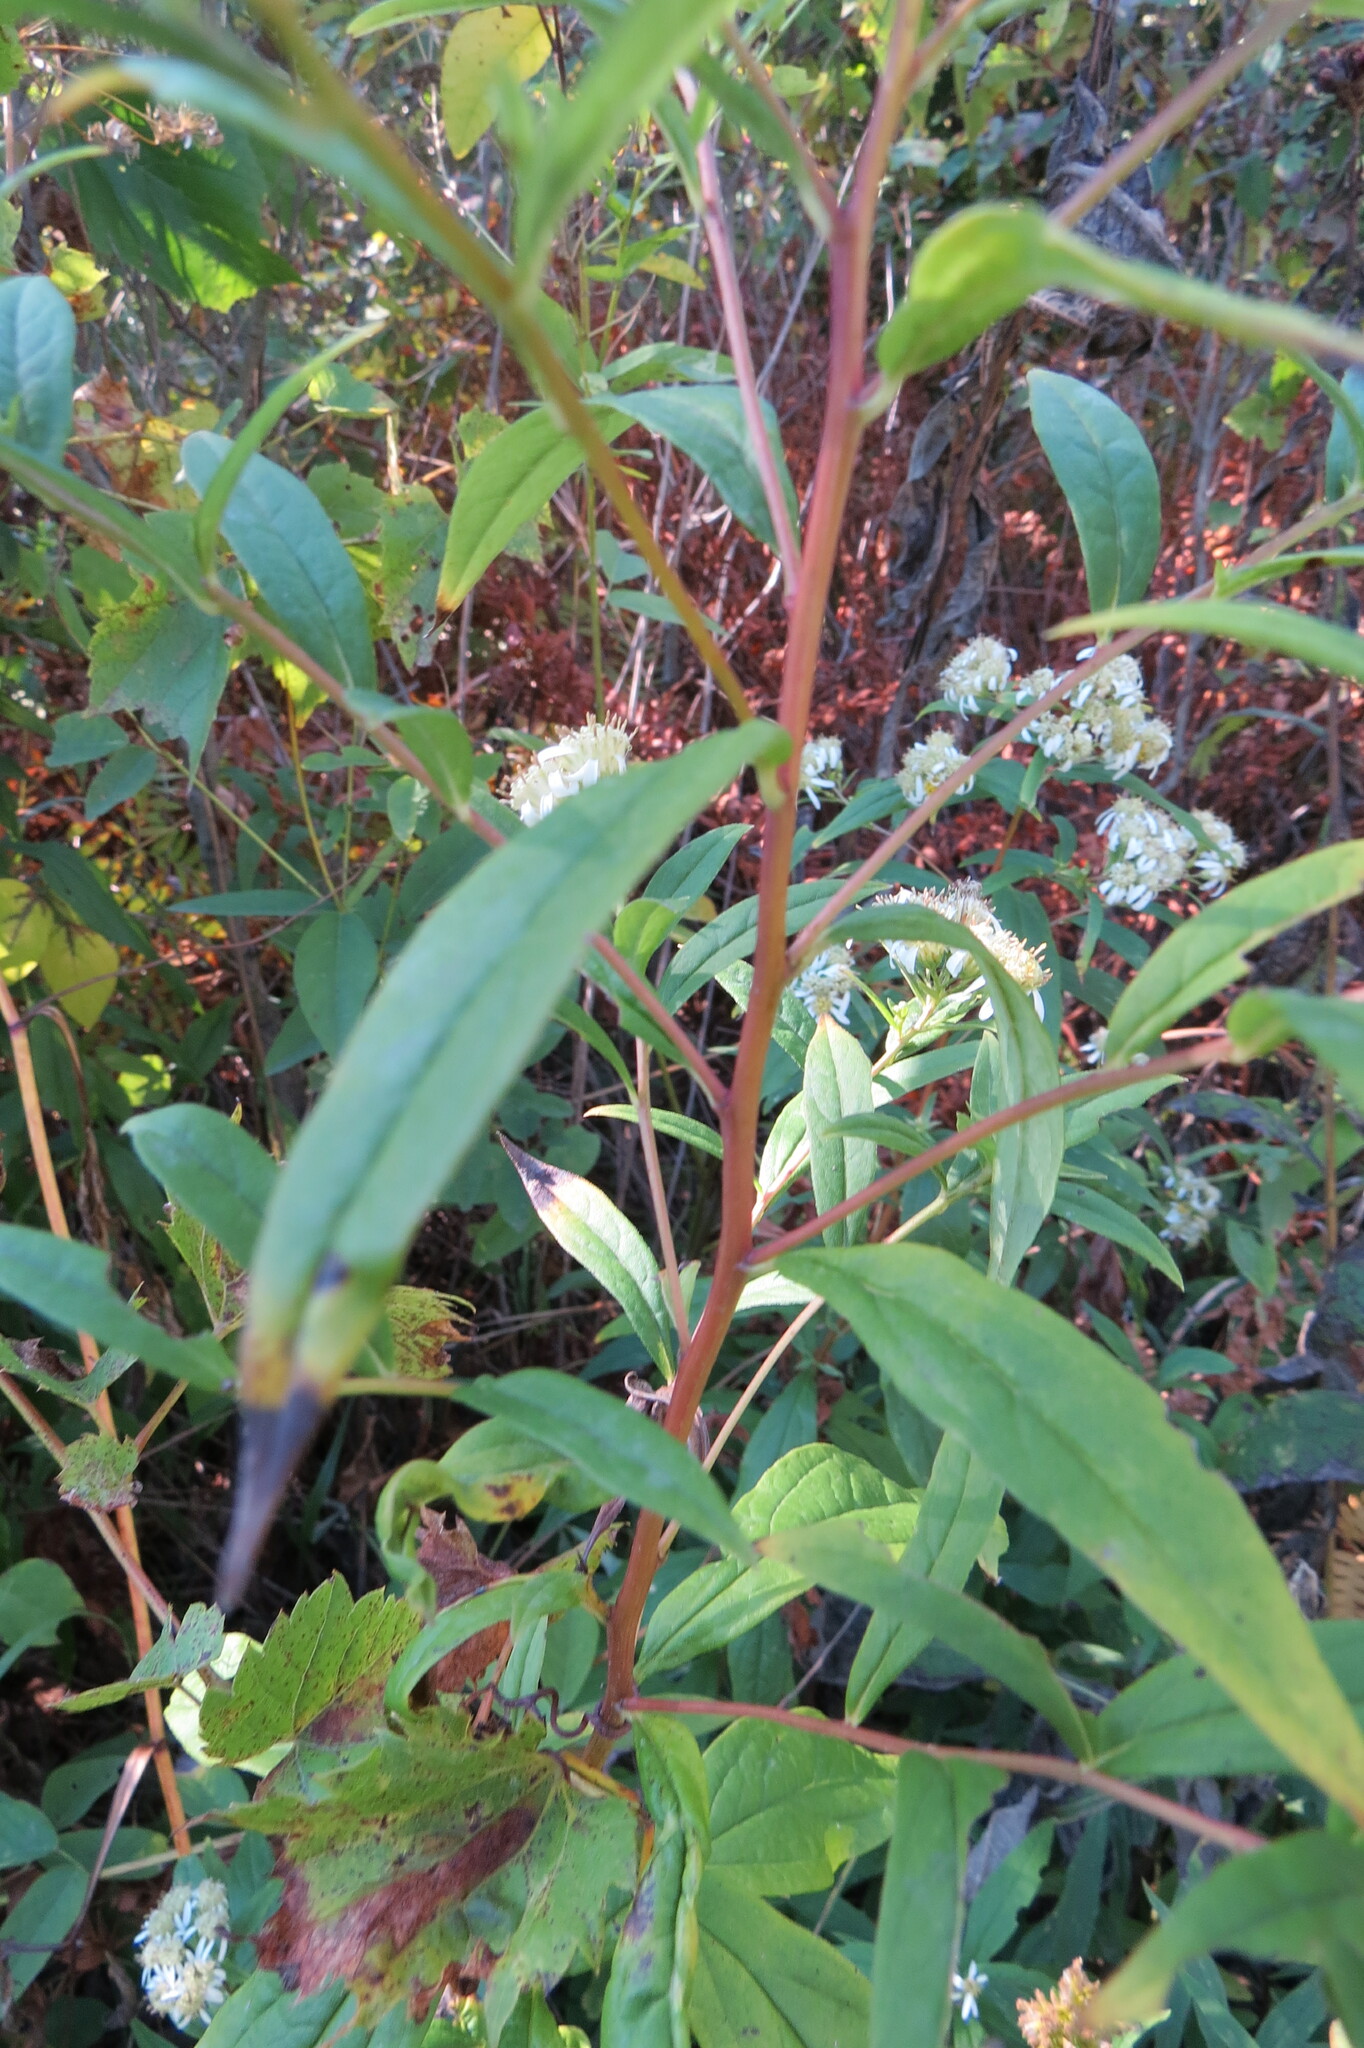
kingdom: Plantae
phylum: Tracheophyta
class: Magnoliopsida
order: Asterales
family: Asteraceae
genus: Doellingeria
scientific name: Doellingeria umbellata
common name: Flat-top white aster
